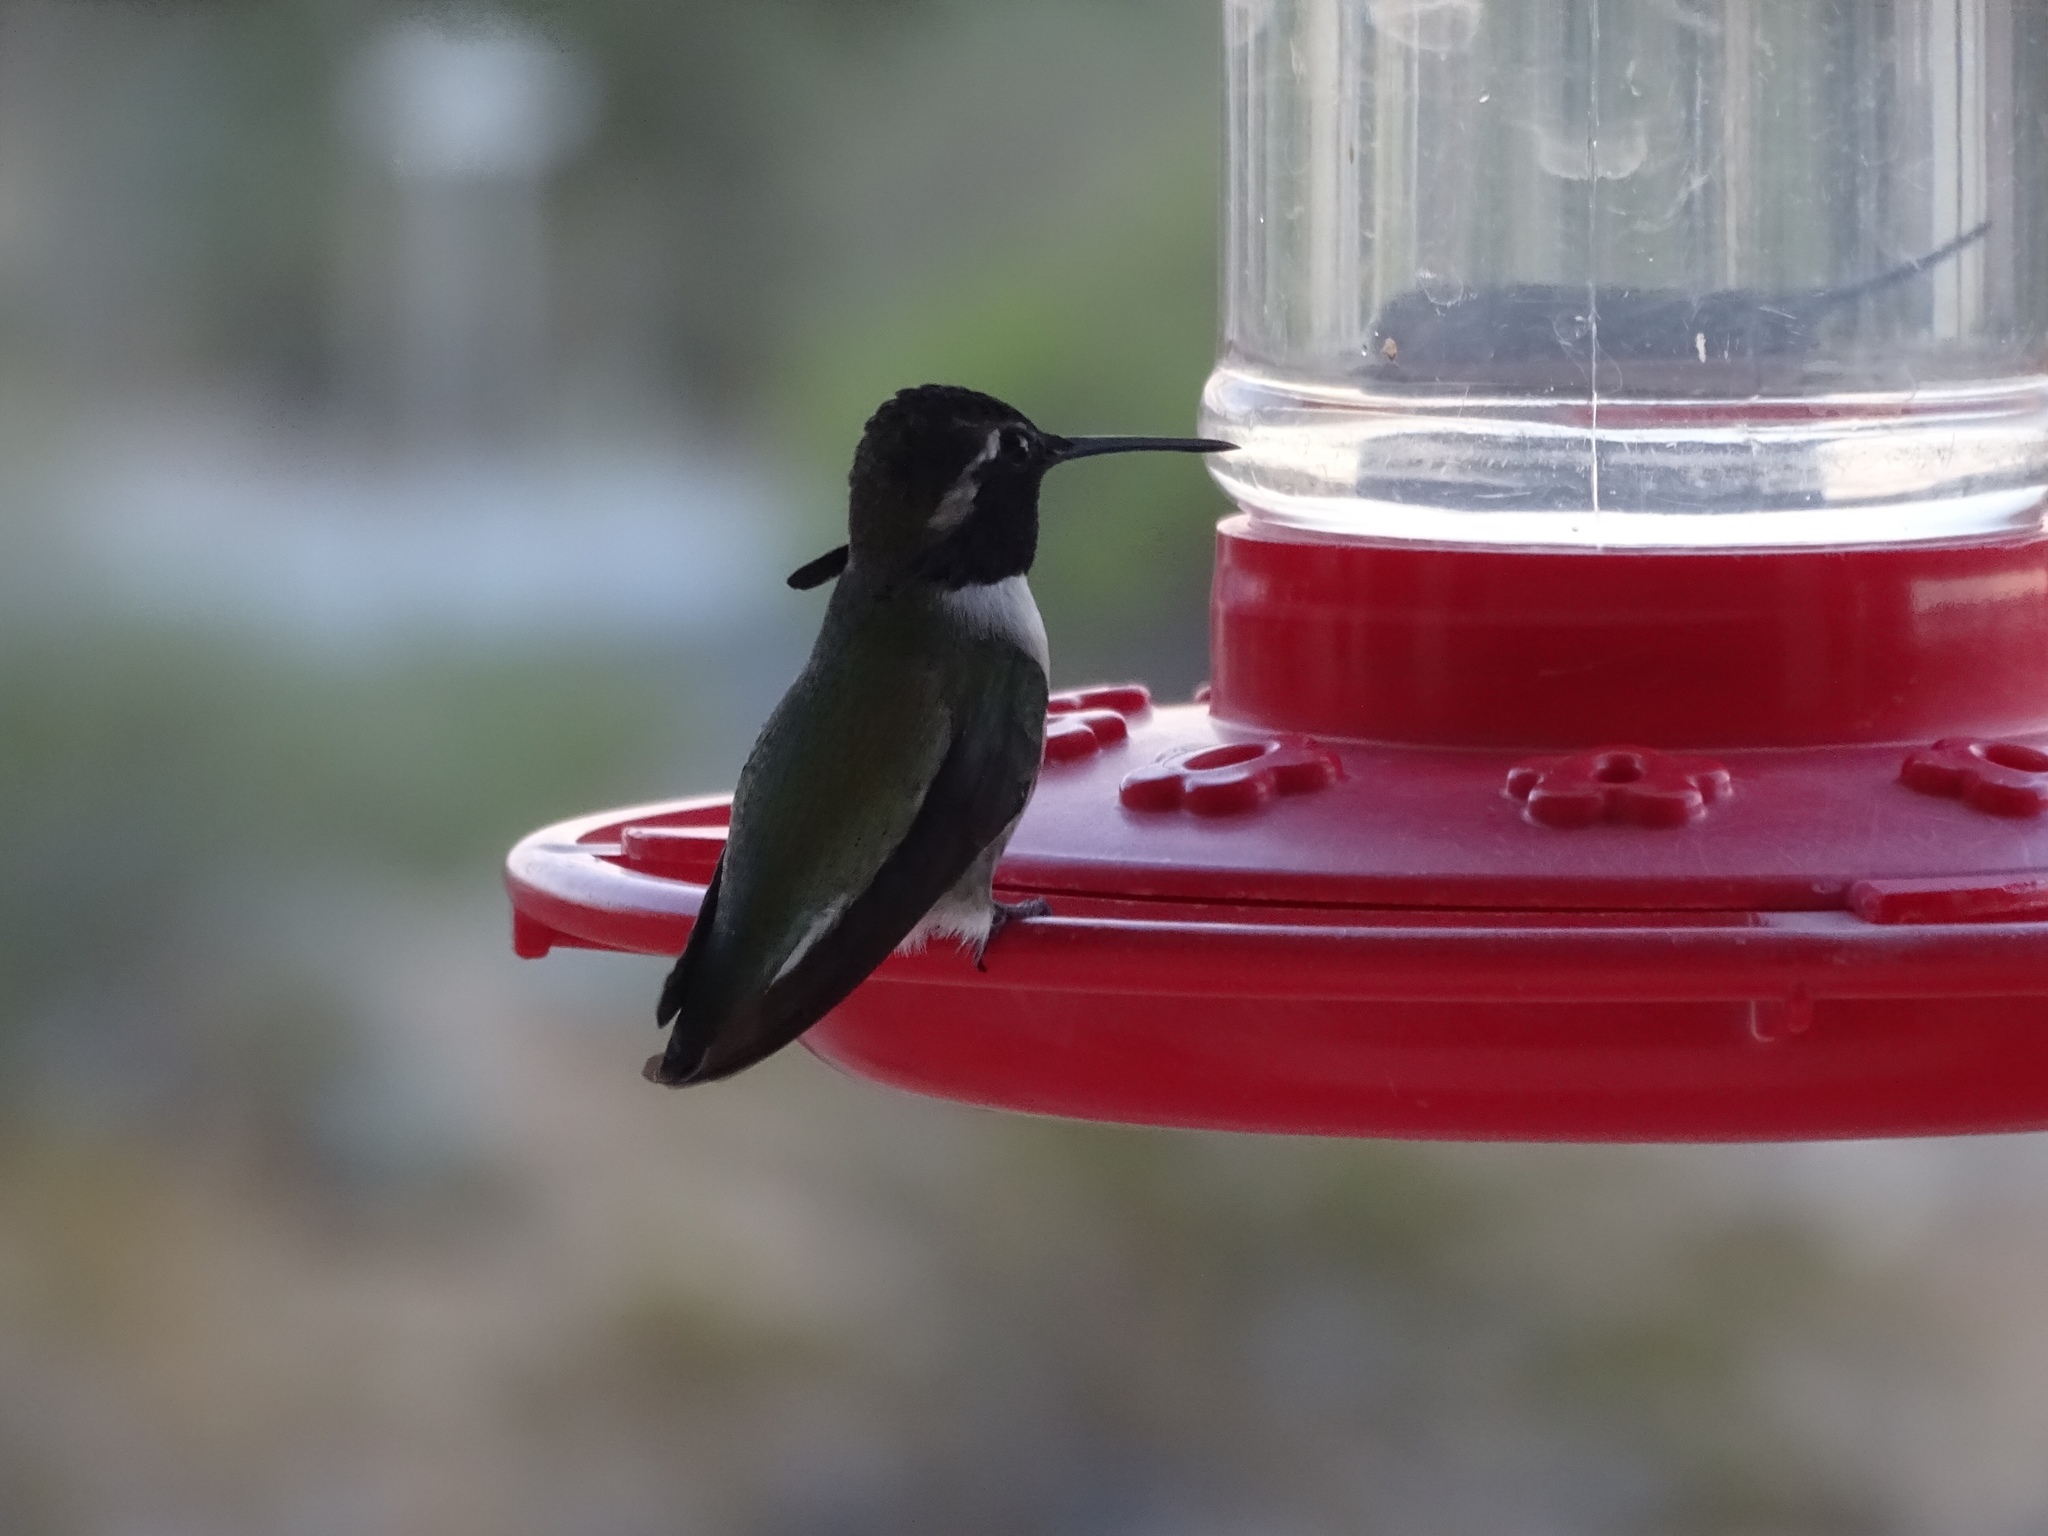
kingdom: Animalia
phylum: Chordata
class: Aves
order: Apodiformes
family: Trochilidae
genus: Calypte
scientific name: Calypte costae
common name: Costa's hummingbird
